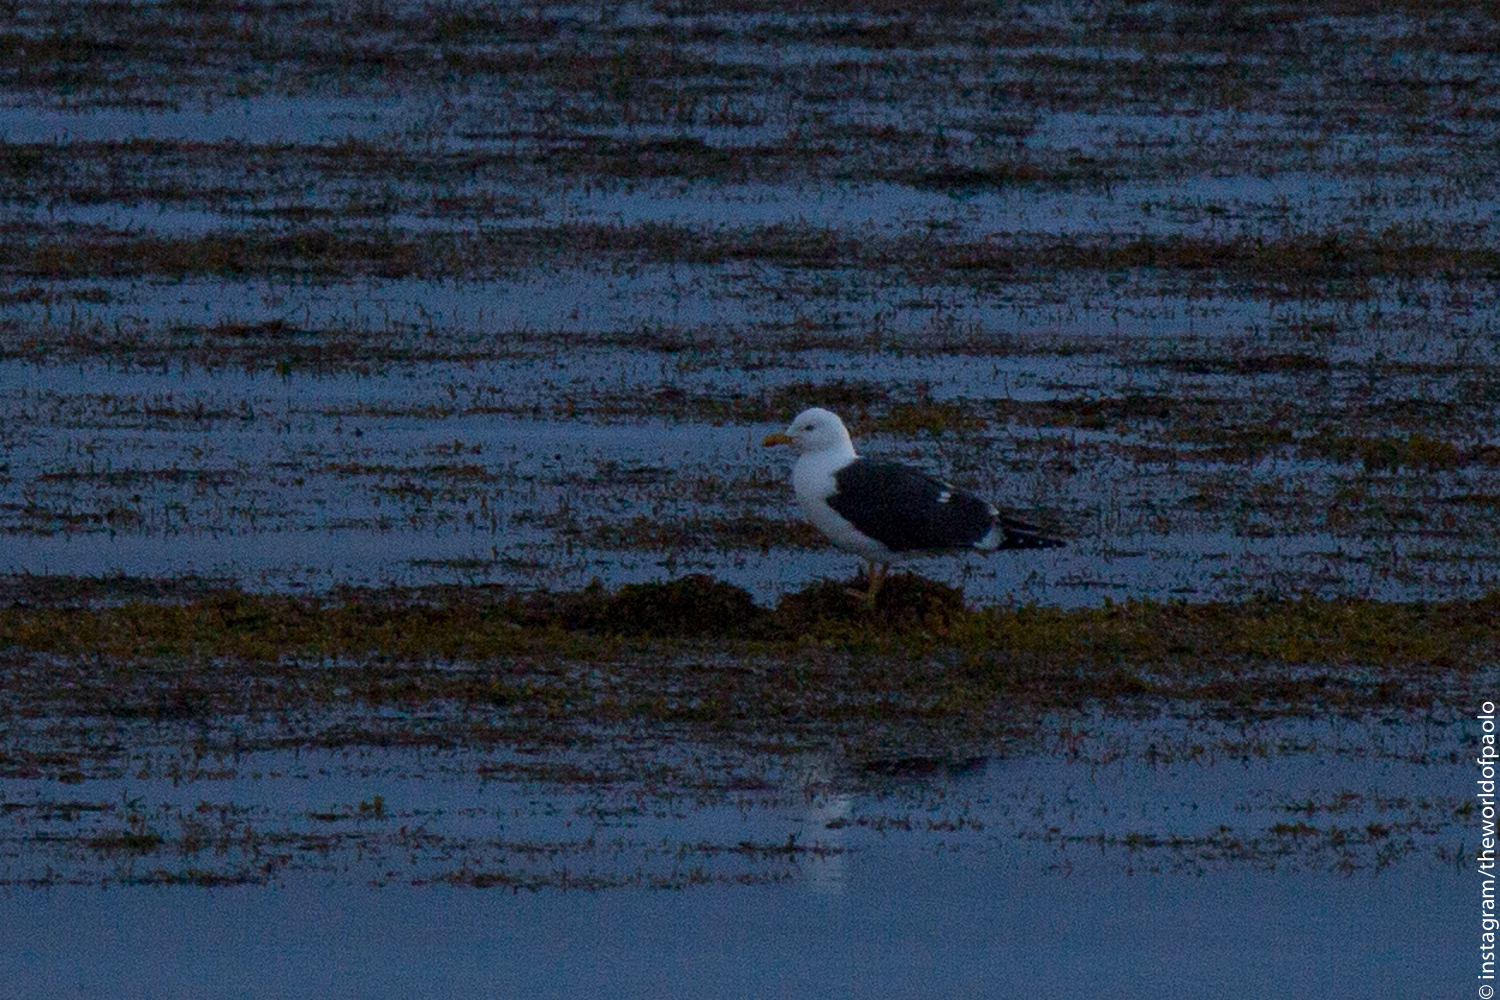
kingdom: Animalia
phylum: Chordata
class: Aves
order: Charadriiformes
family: Laridae
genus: Larus
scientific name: Larus fuscus
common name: Lesser black-backed gull
